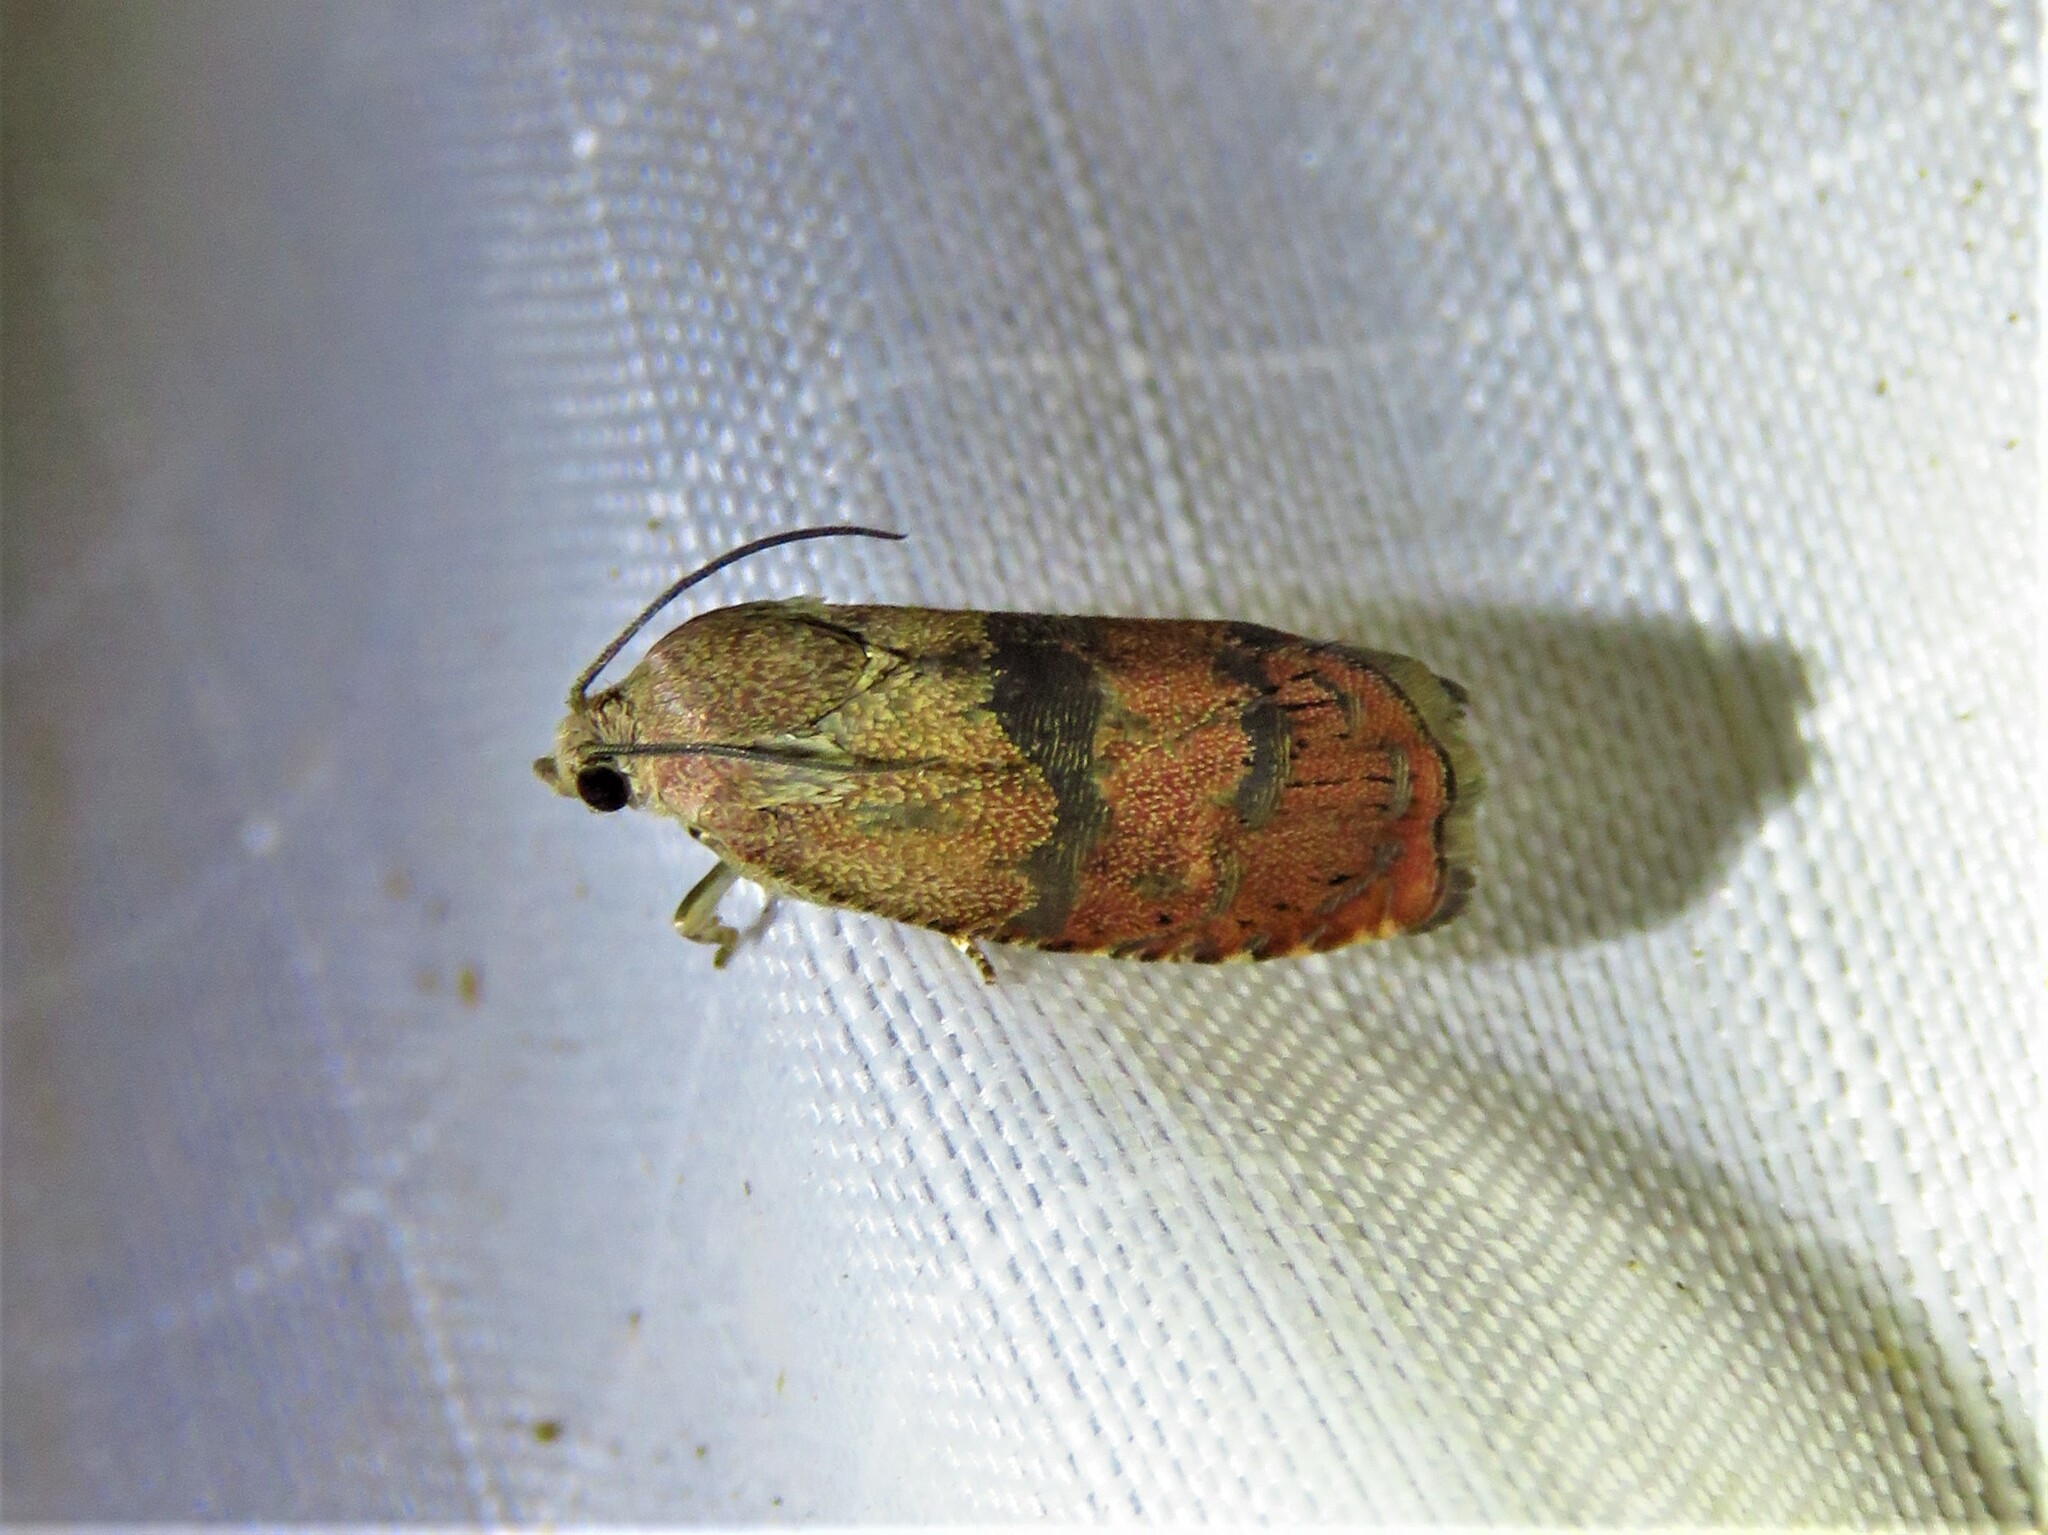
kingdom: Animalia
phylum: Arthropoda
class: Insecta
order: Lepidoptera
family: Tortricidae
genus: Cydia
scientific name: Cydia latiferreana
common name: Filbertworm moth
